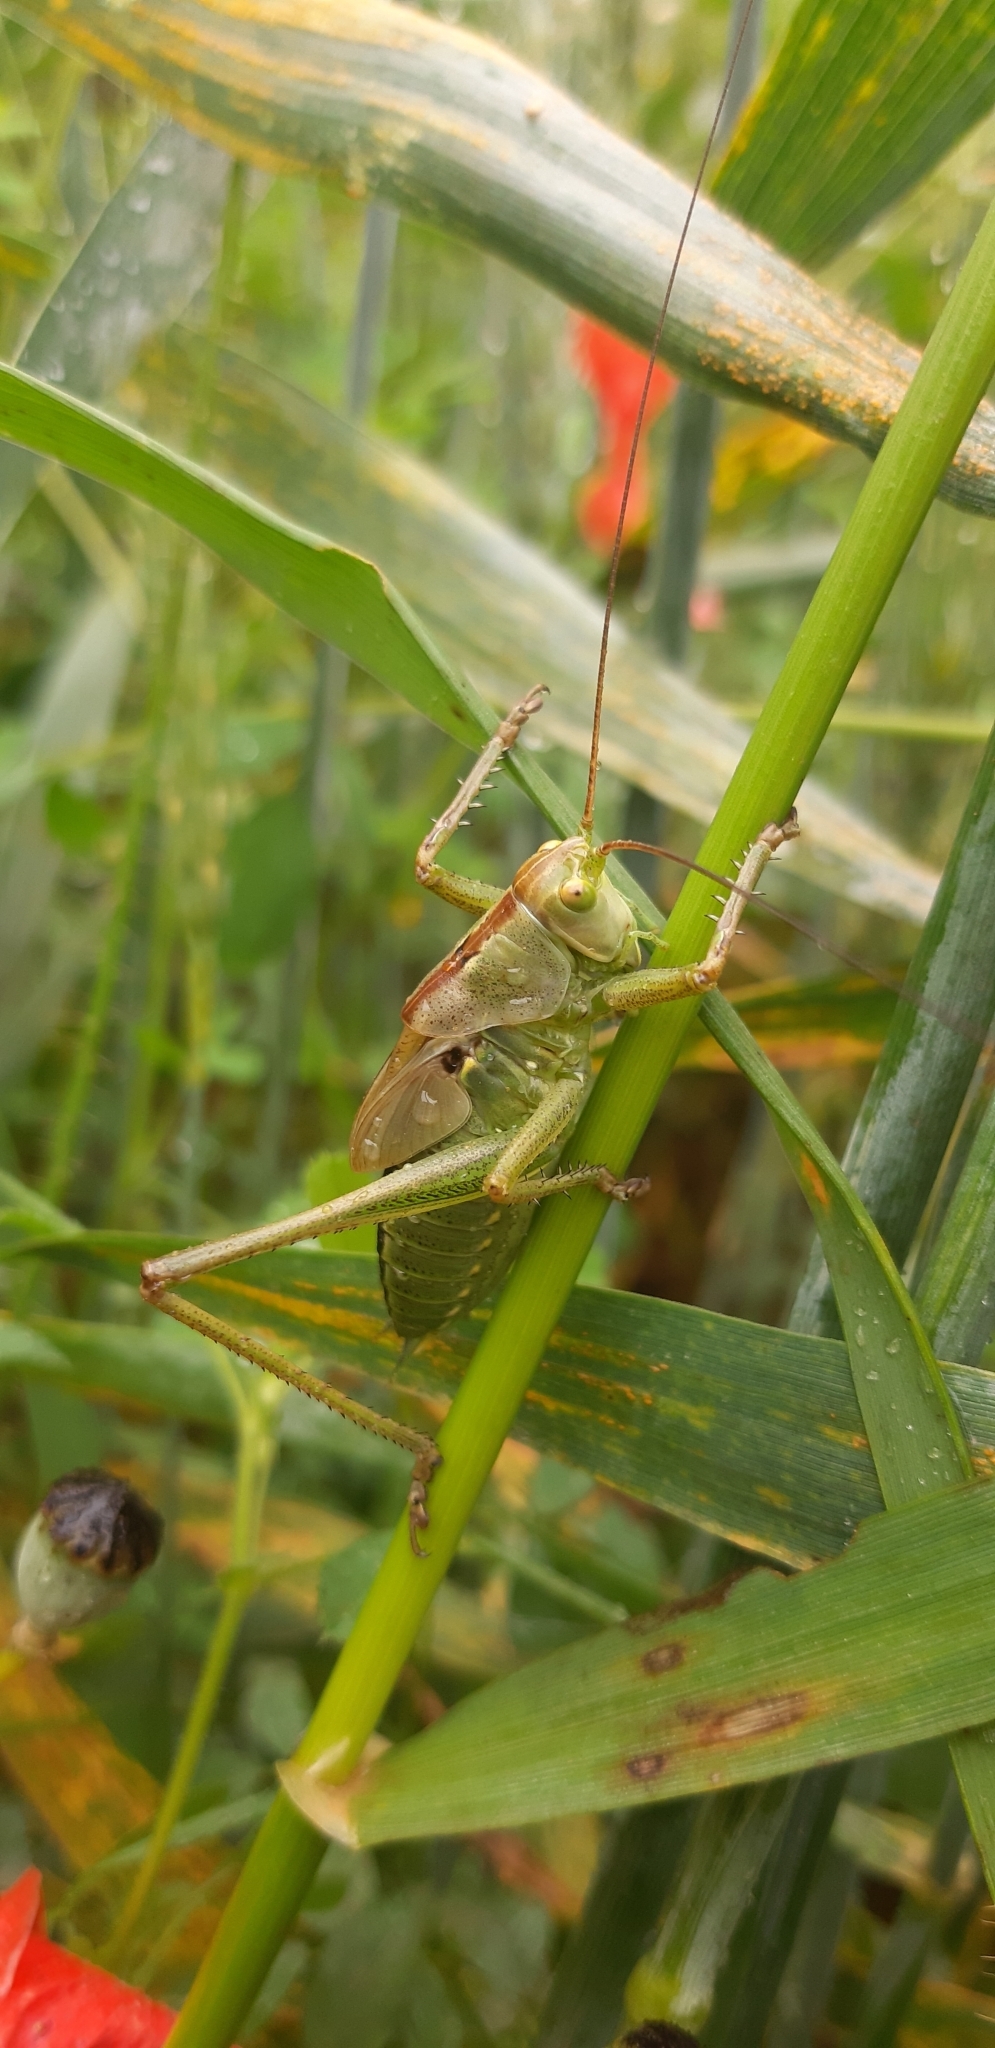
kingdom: Animalia
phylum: Arthropoda
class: Insecta
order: Orthoptera
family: Tettigoniidae
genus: Tettigonia
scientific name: Tettigonia viridissima
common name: Great green bush-cricket
